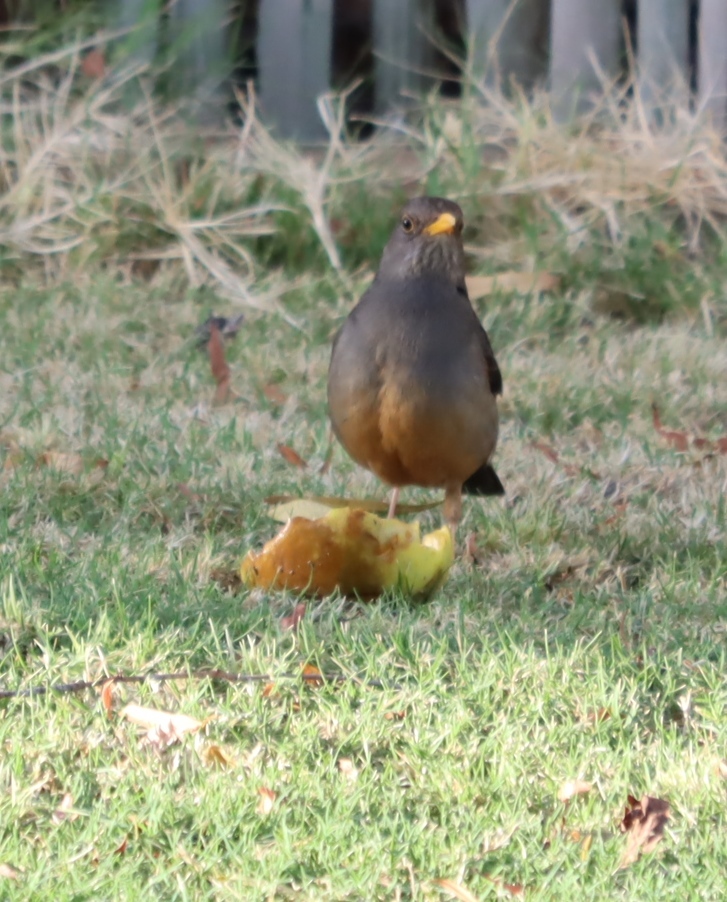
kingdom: Animalia
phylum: Chordata
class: Aves
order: Passeriformes
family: Turdidae
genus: Turdus
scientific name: Turdus smithi
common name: Karoo thrush
